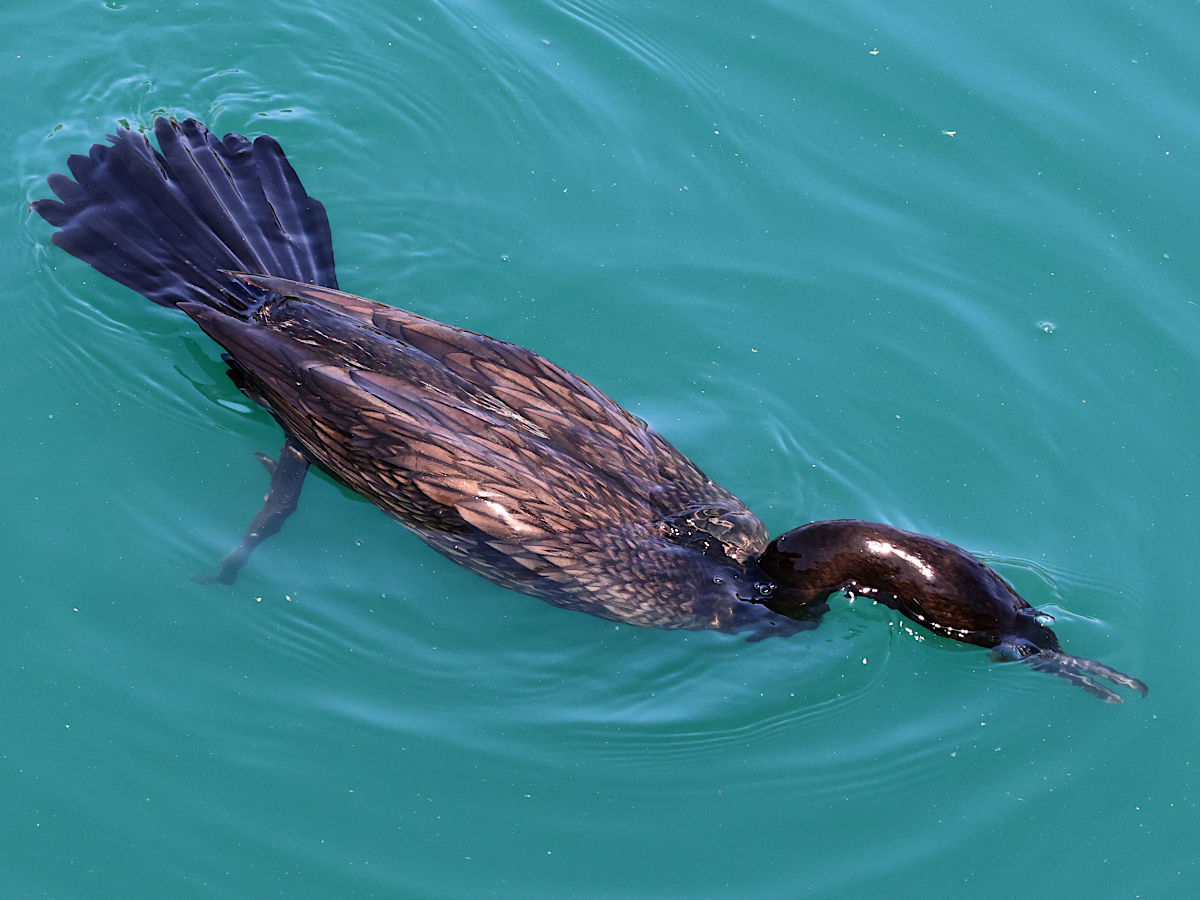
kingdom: Animalia
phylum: Chordata
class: Aves
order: Suliformes
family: Phalacrocoracidae
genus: Phalacrocorax
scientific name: Phalacrocorax brasilianus
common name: Neotropic cormorant
